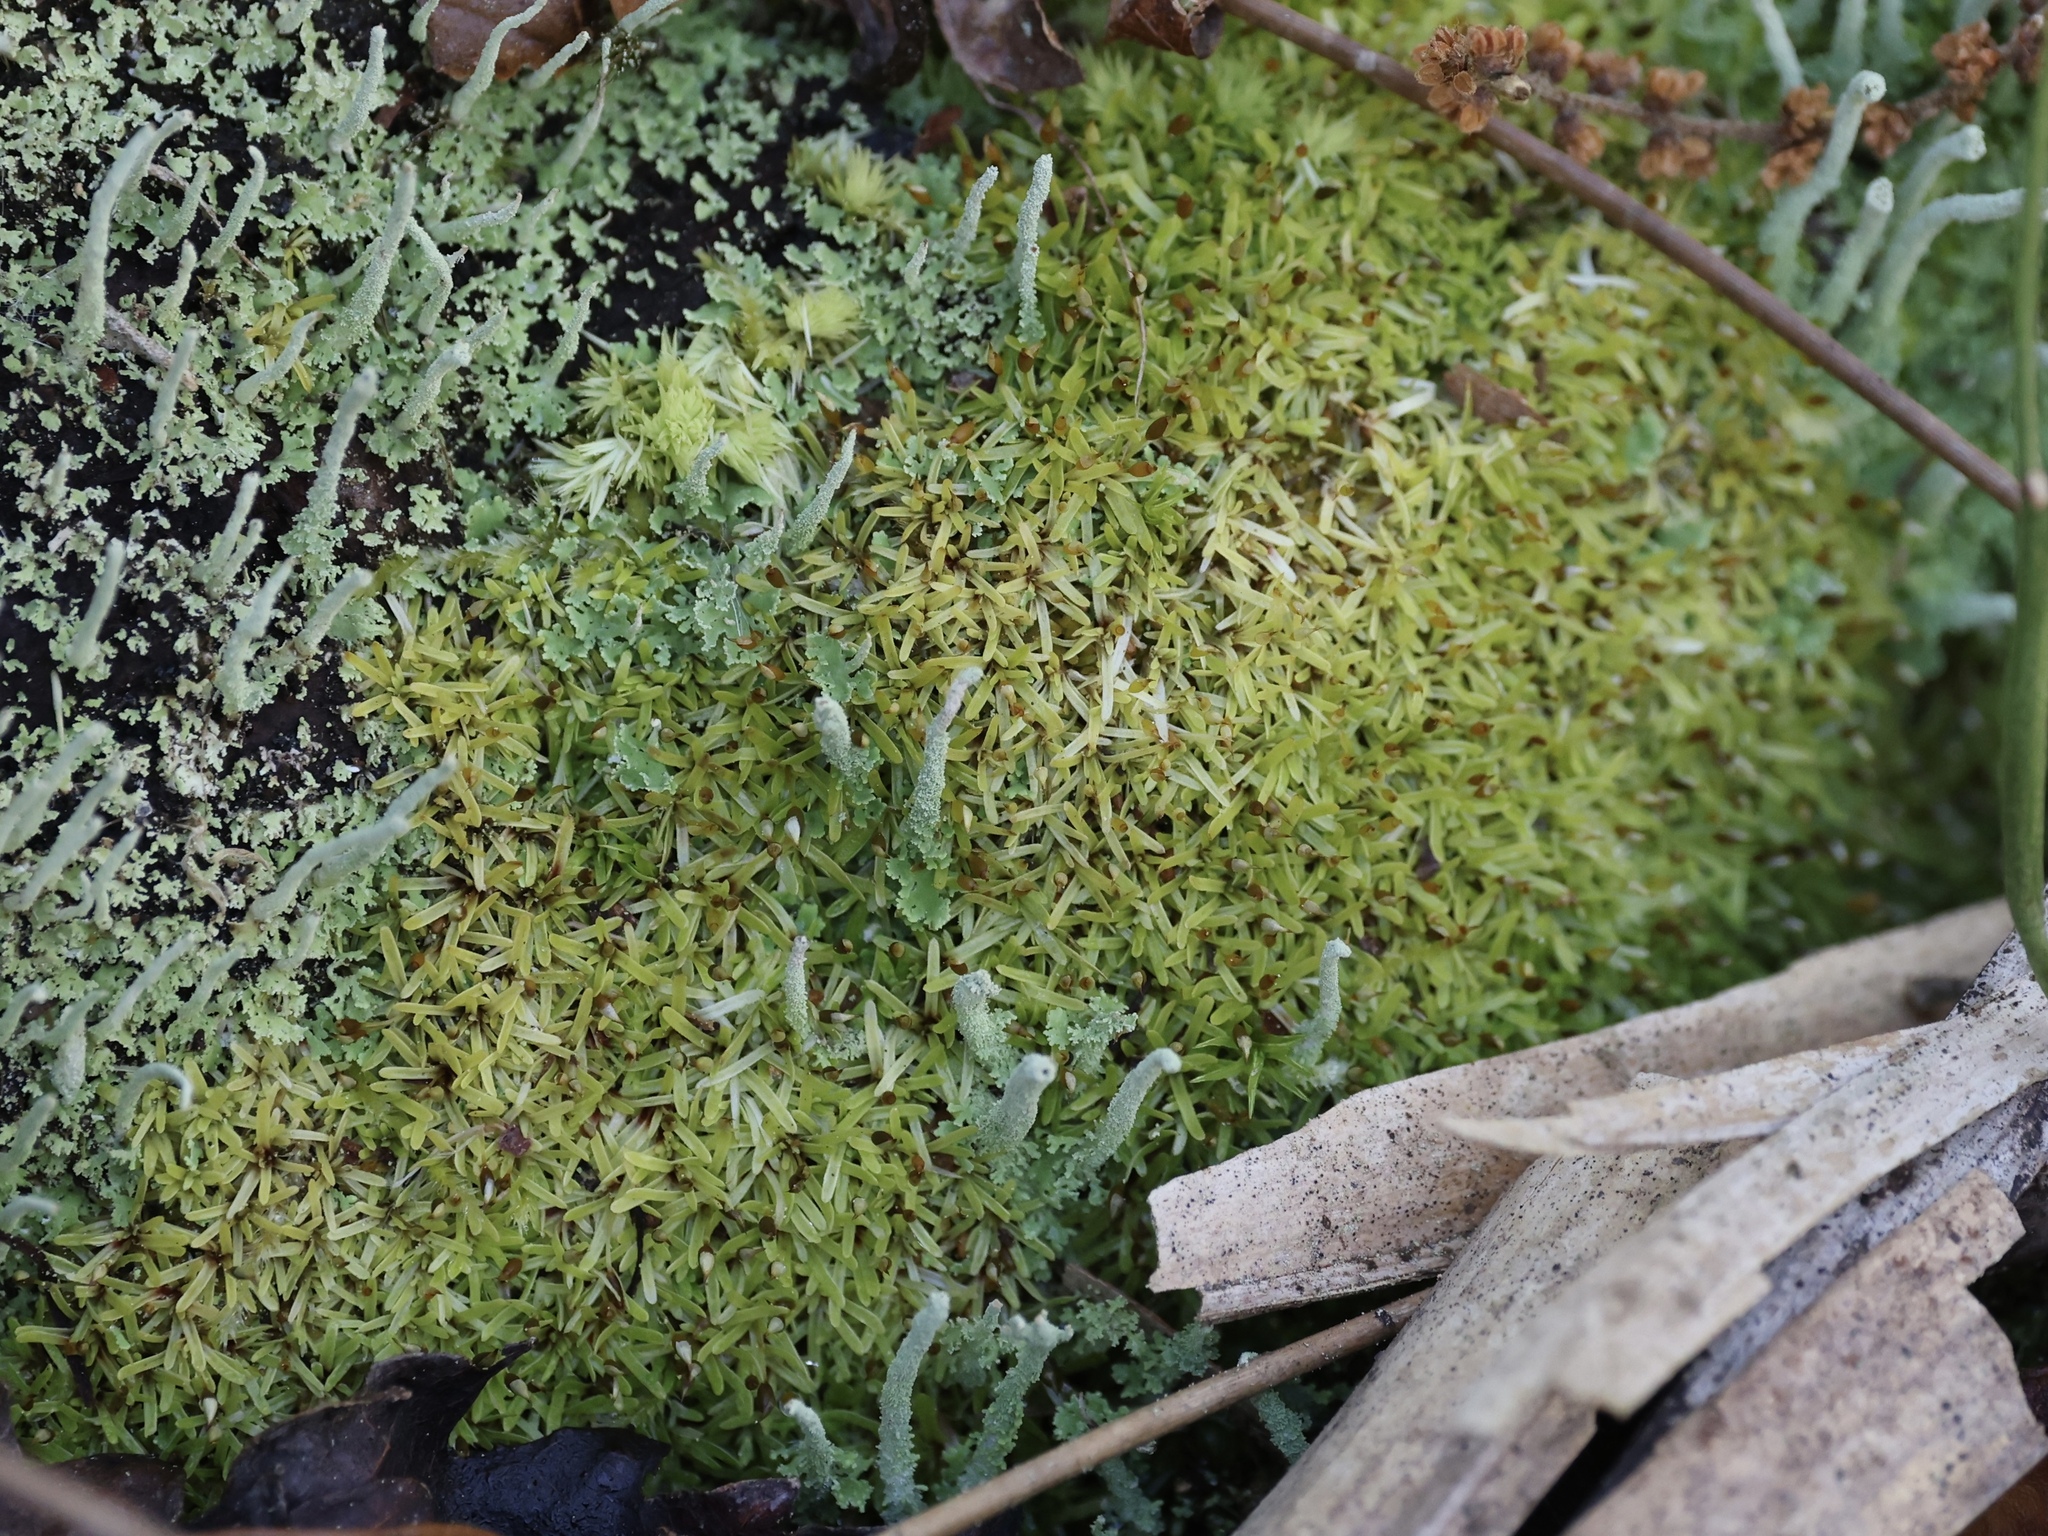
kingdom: Plantae
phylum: Bryophyta
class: Bryopsida
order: Dicranales
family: Octoblepharaceae
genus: Octoblepharum
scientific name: Octoblepharum albidum
